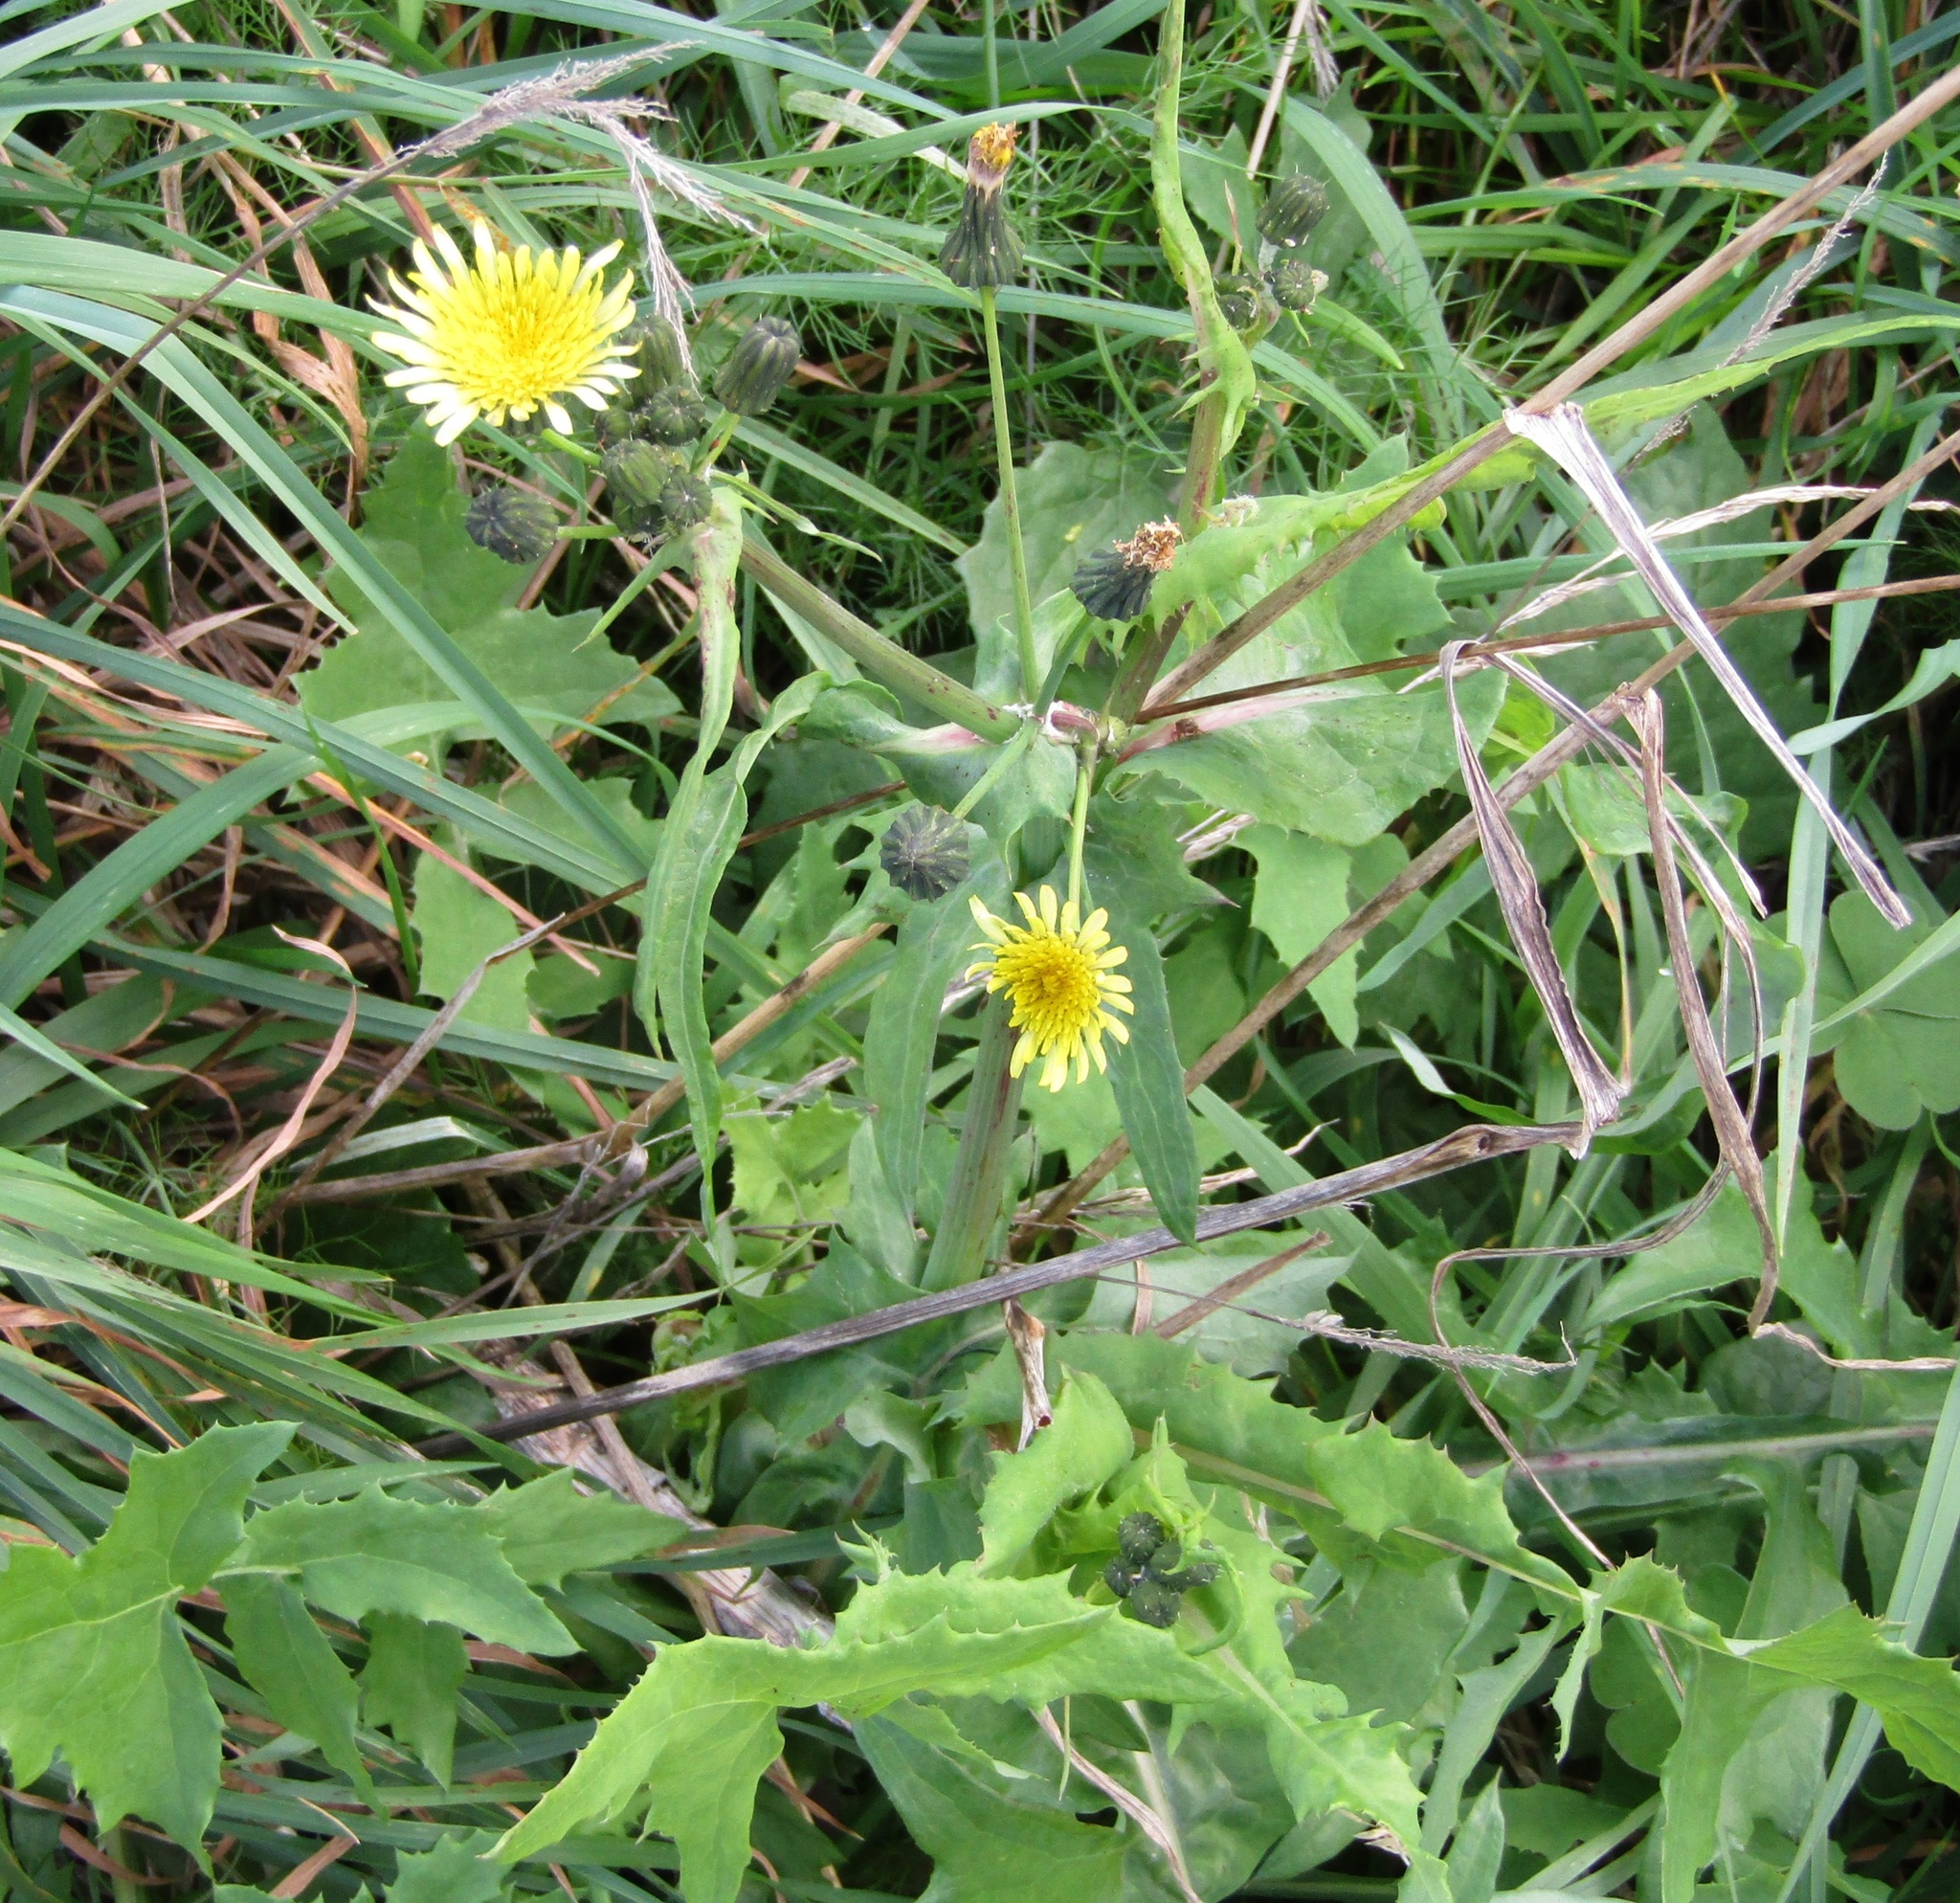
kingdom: Plantae
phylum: Tracheophyta
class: Magnoliopsida
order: Asterales
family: Asteraceae
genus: Sonchus
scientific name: Sonchus oleraceus
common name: Common sowthistle
